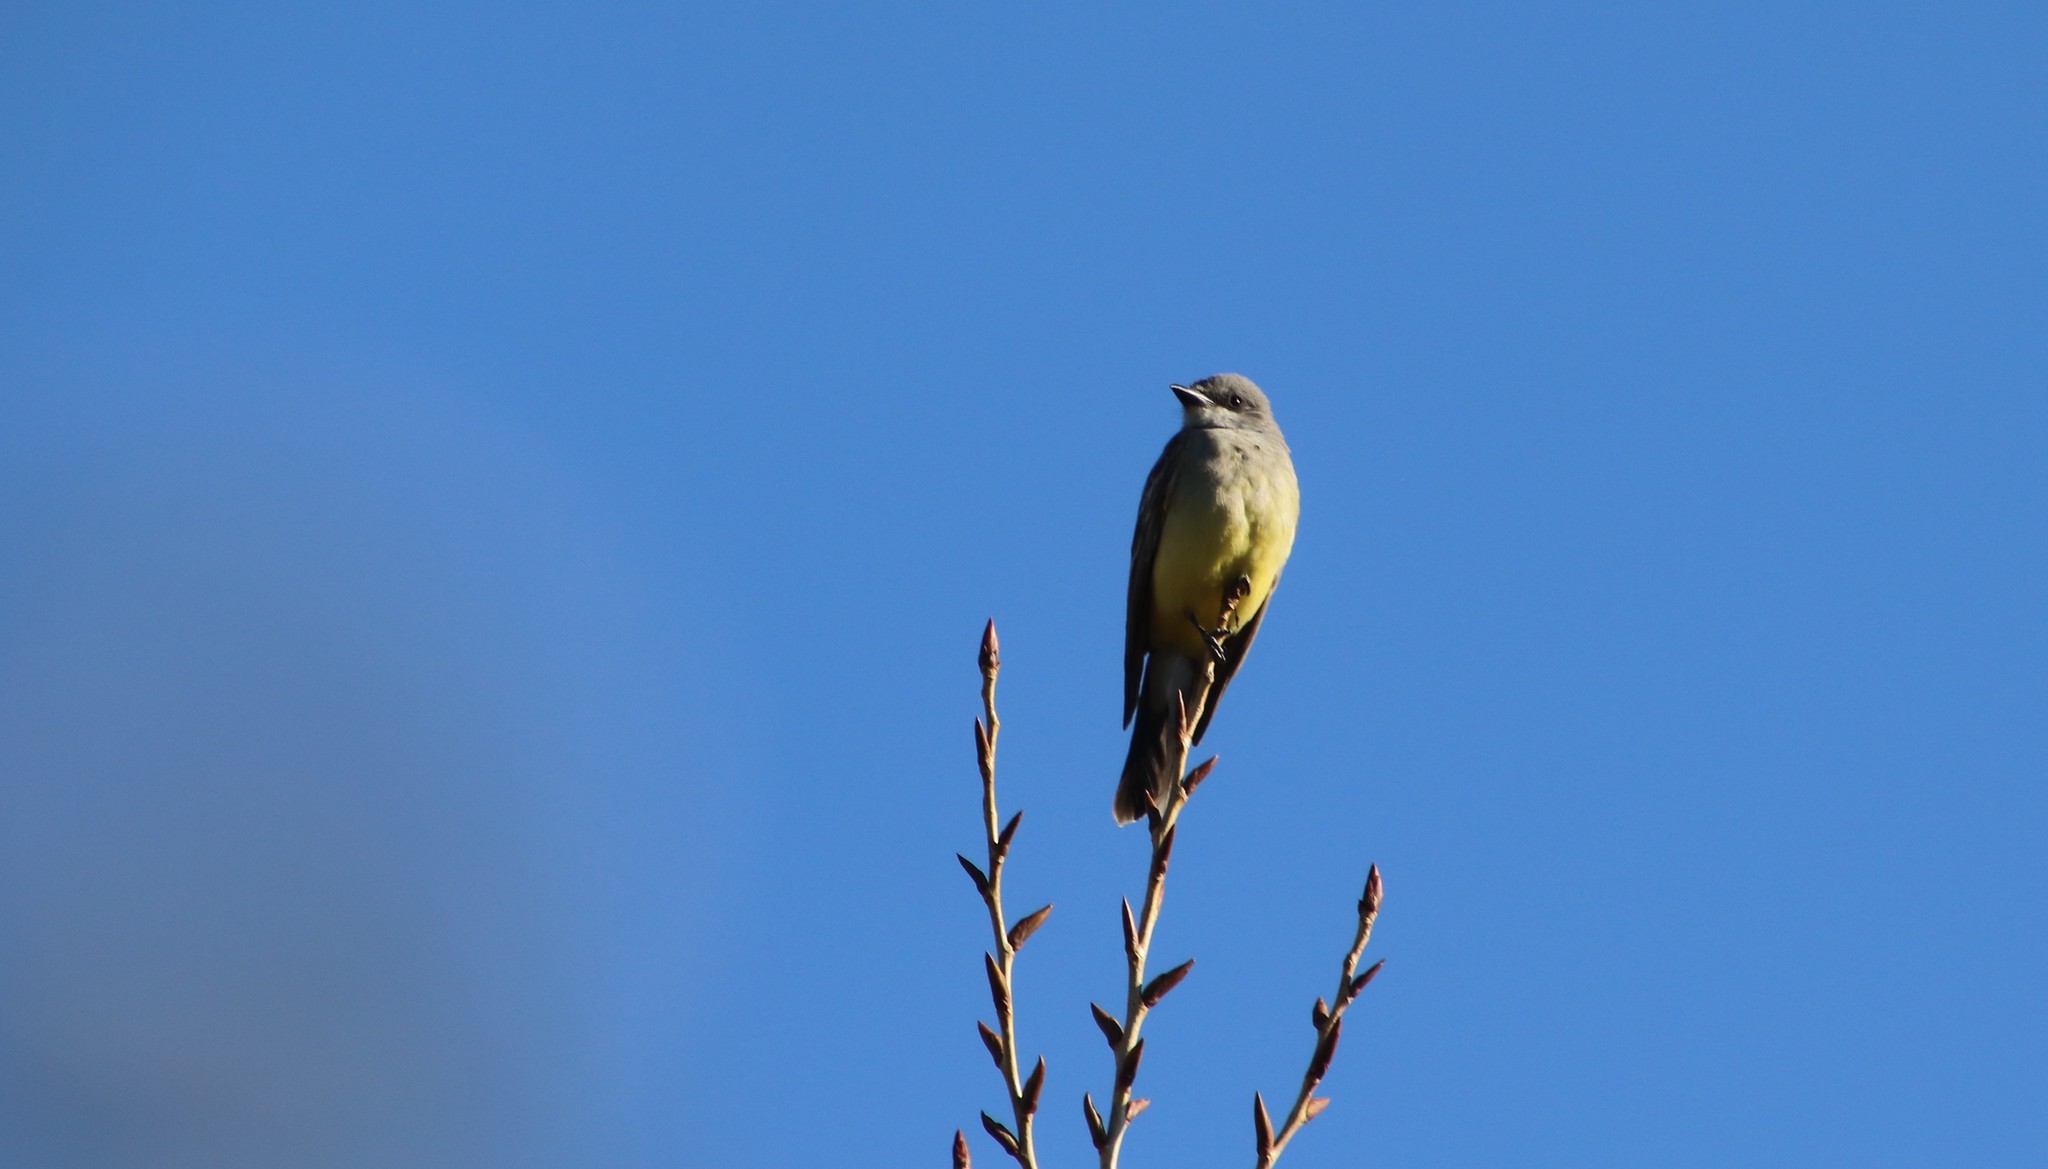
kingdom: Animalia
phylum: Chordata
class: Aves
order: Passeriformes
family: Tyrannidae
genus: Tyrannus
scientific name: Tyrannus vociferans
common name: Cassin's kingbird
